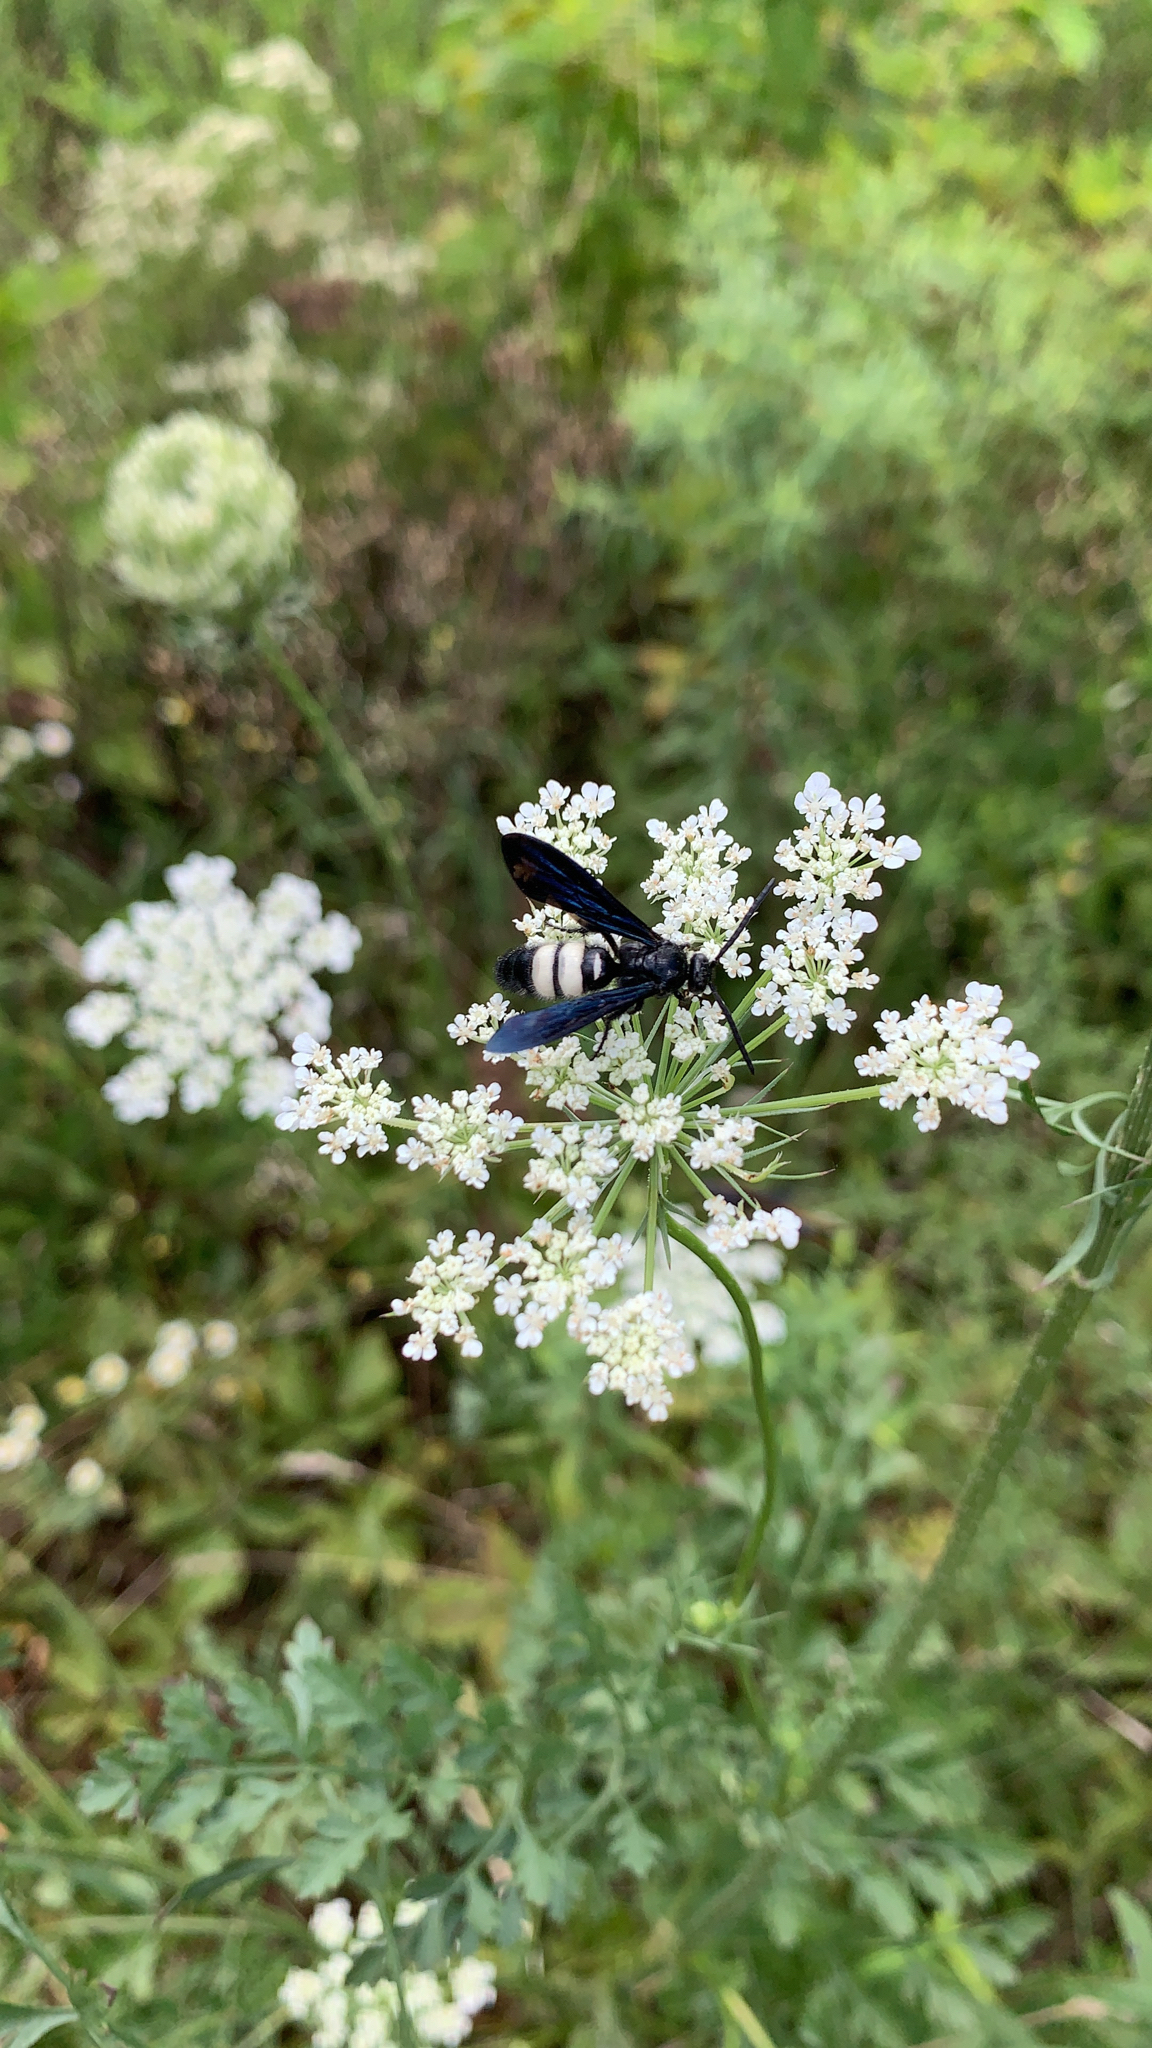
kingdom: Animalia
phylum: Arthropoda
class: Insecta
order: Hymenoptera
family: Scoliidae
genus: Scolia
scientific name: Scolia bicincta
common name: Double-banded scoliid wasp
